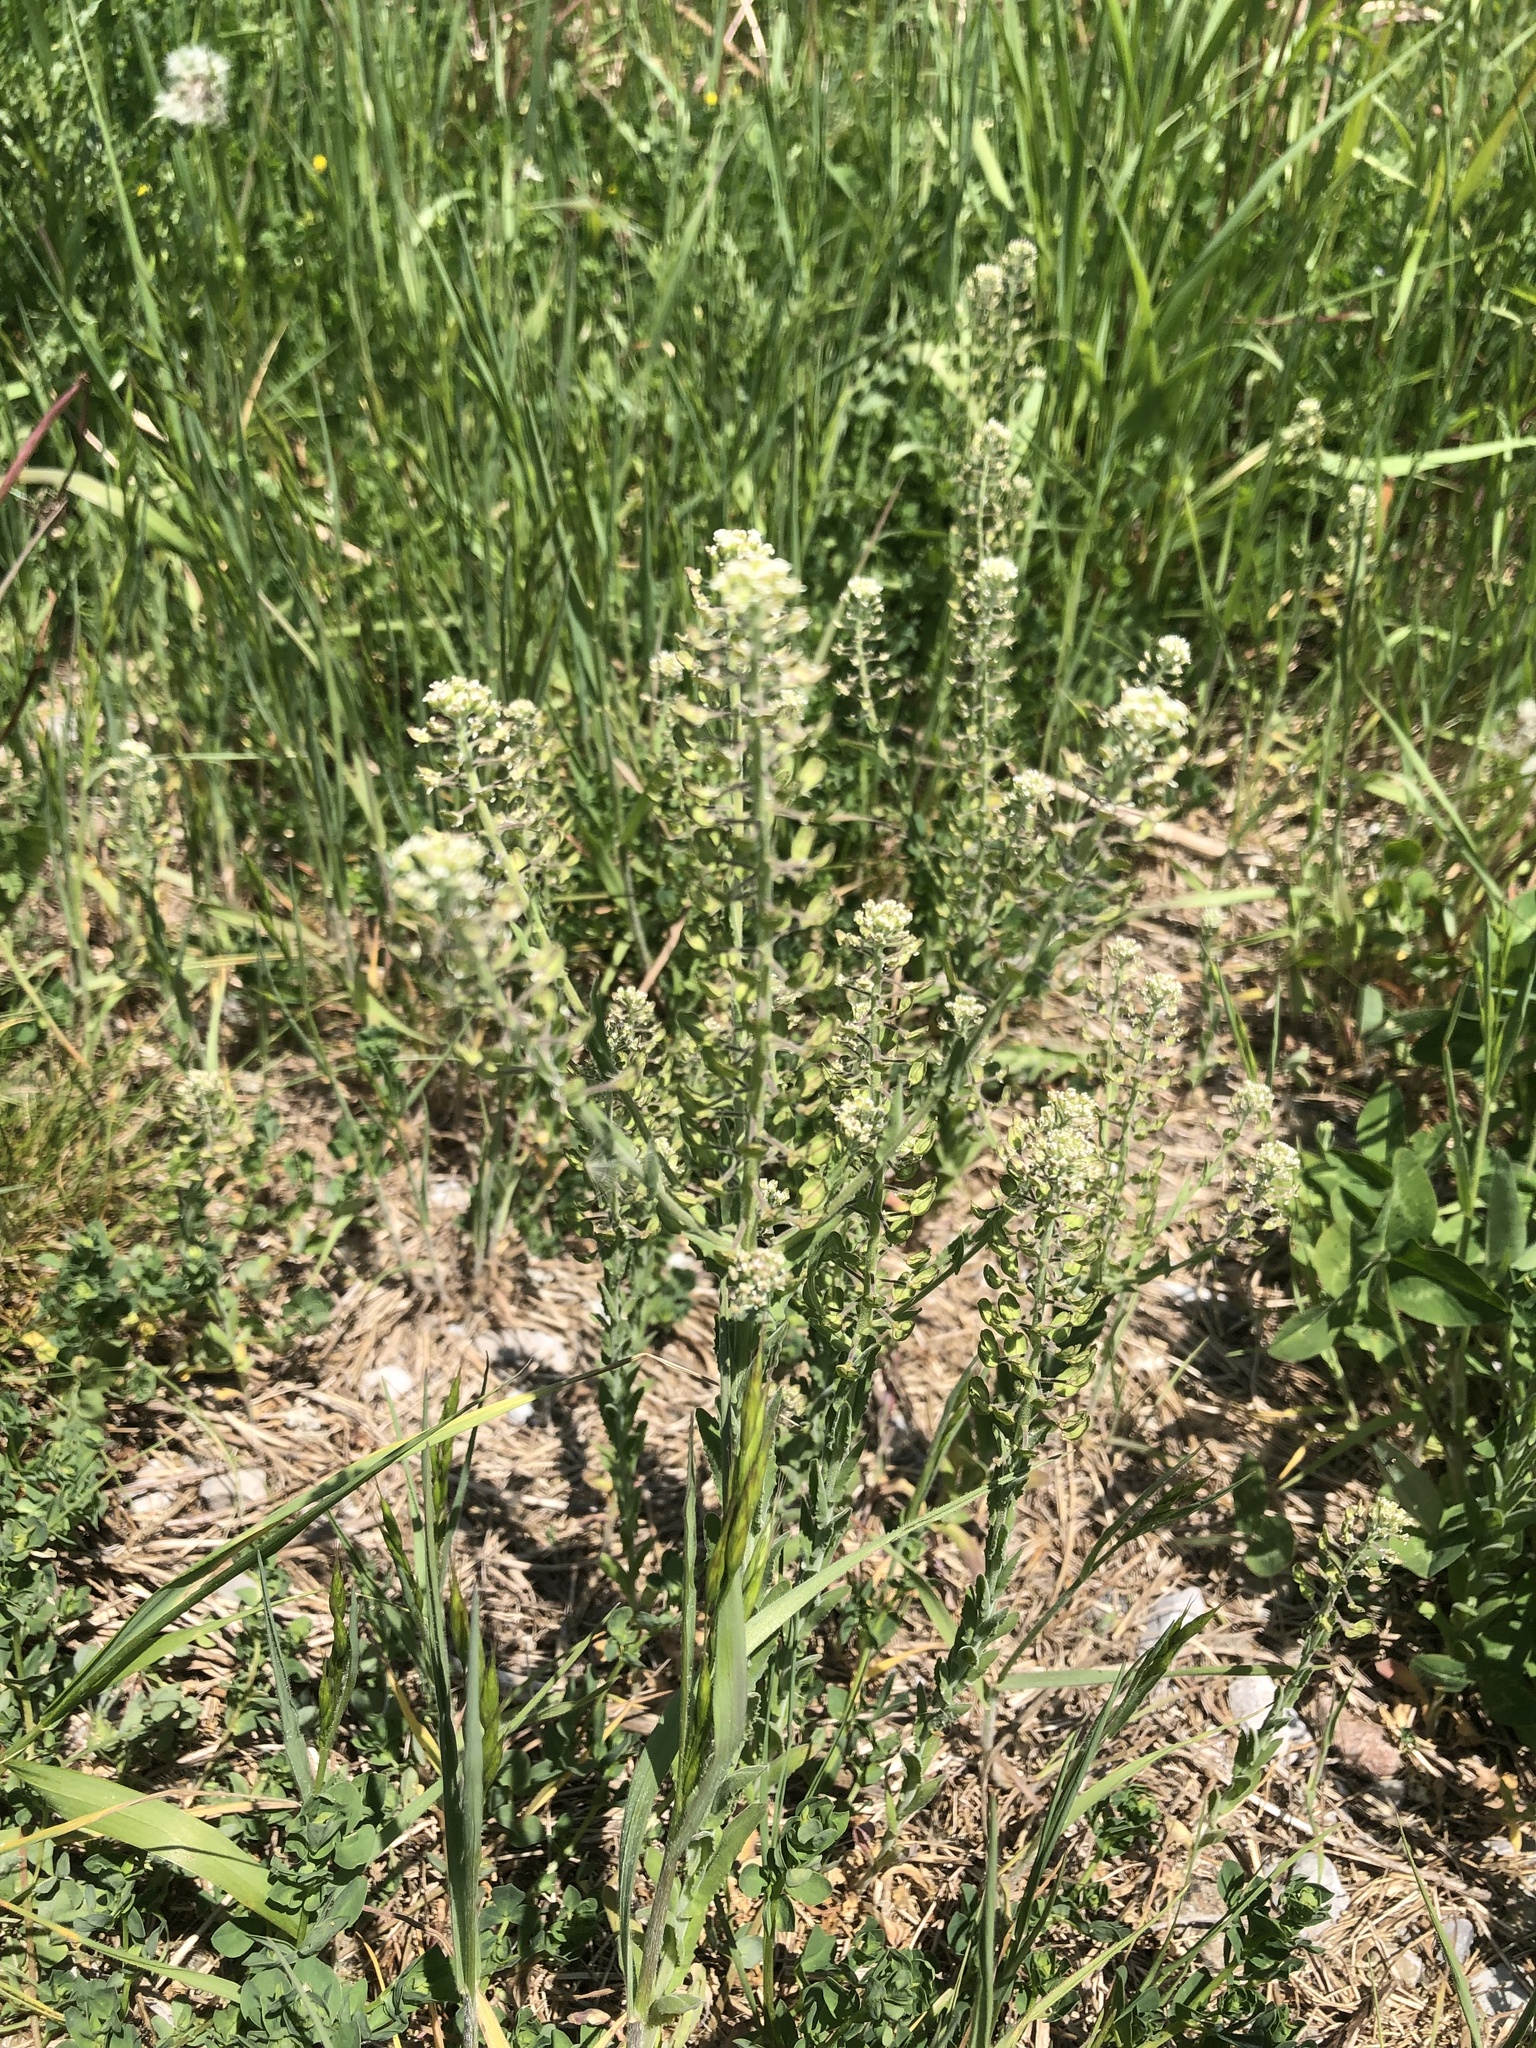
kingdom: Plantae
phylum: Tracheophyta
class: Magnoliopsida
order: Brassicales
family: Brassicaceae
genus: Lepidium
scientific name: Lepidium campestre
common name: Field pepperwort
